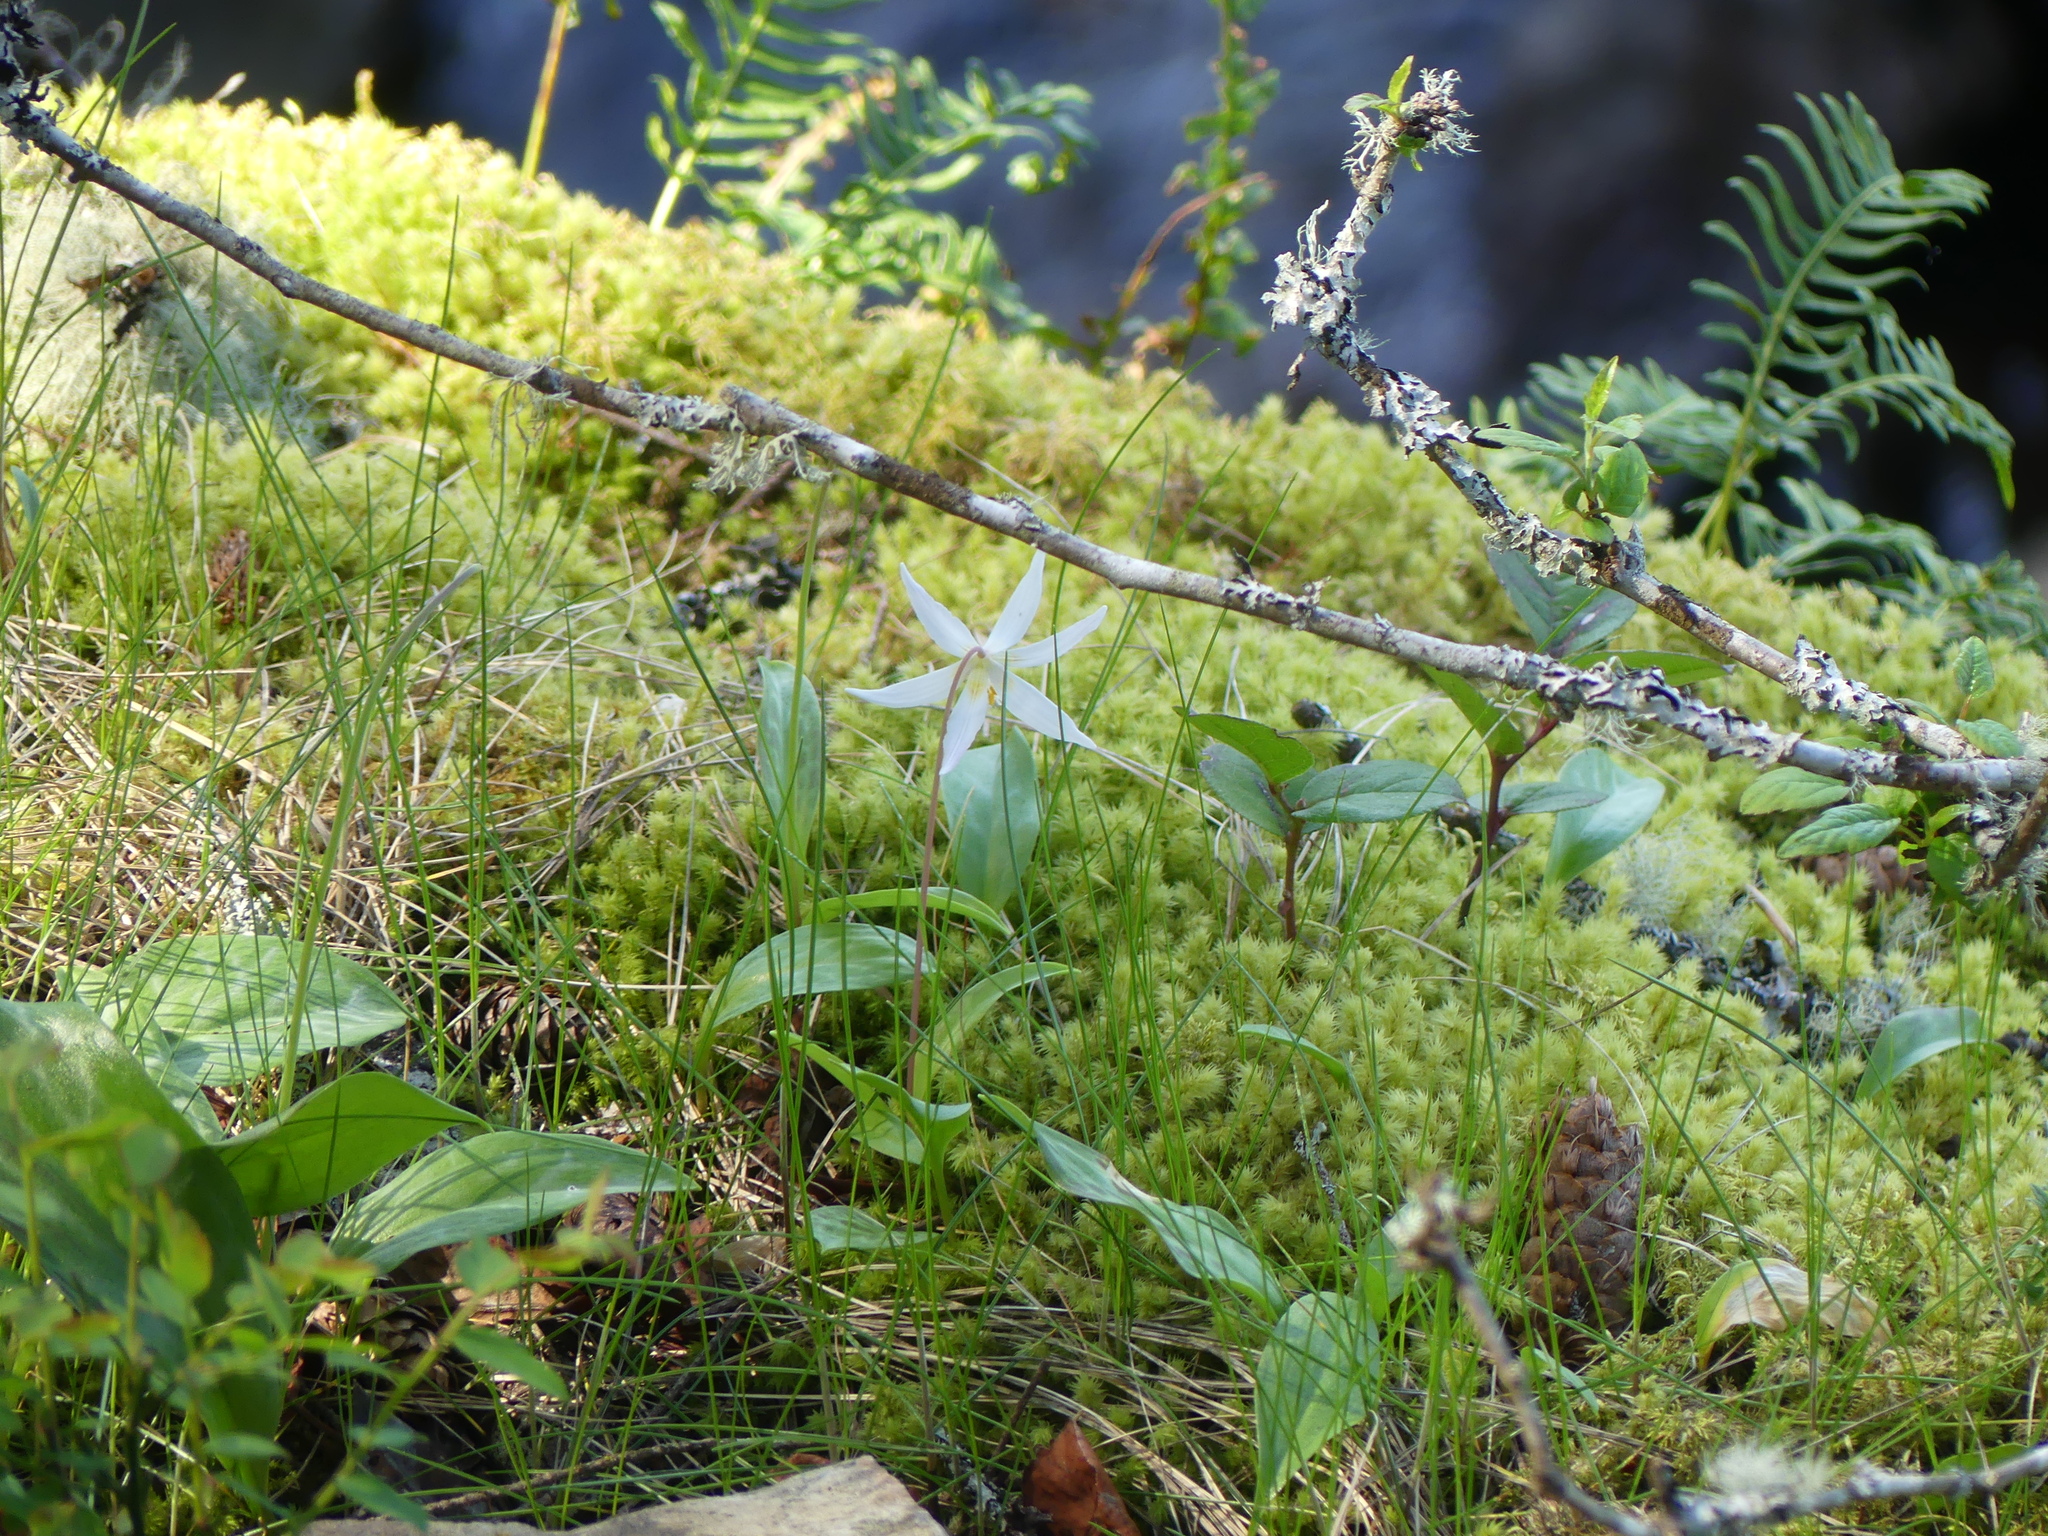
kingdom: Plantae
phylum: Tracheophyta
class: Liliopsida
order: Liliales
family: Liliaceae
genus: Erythronium
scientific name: Erythronium oregonum
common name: Giant adder's-tongue
